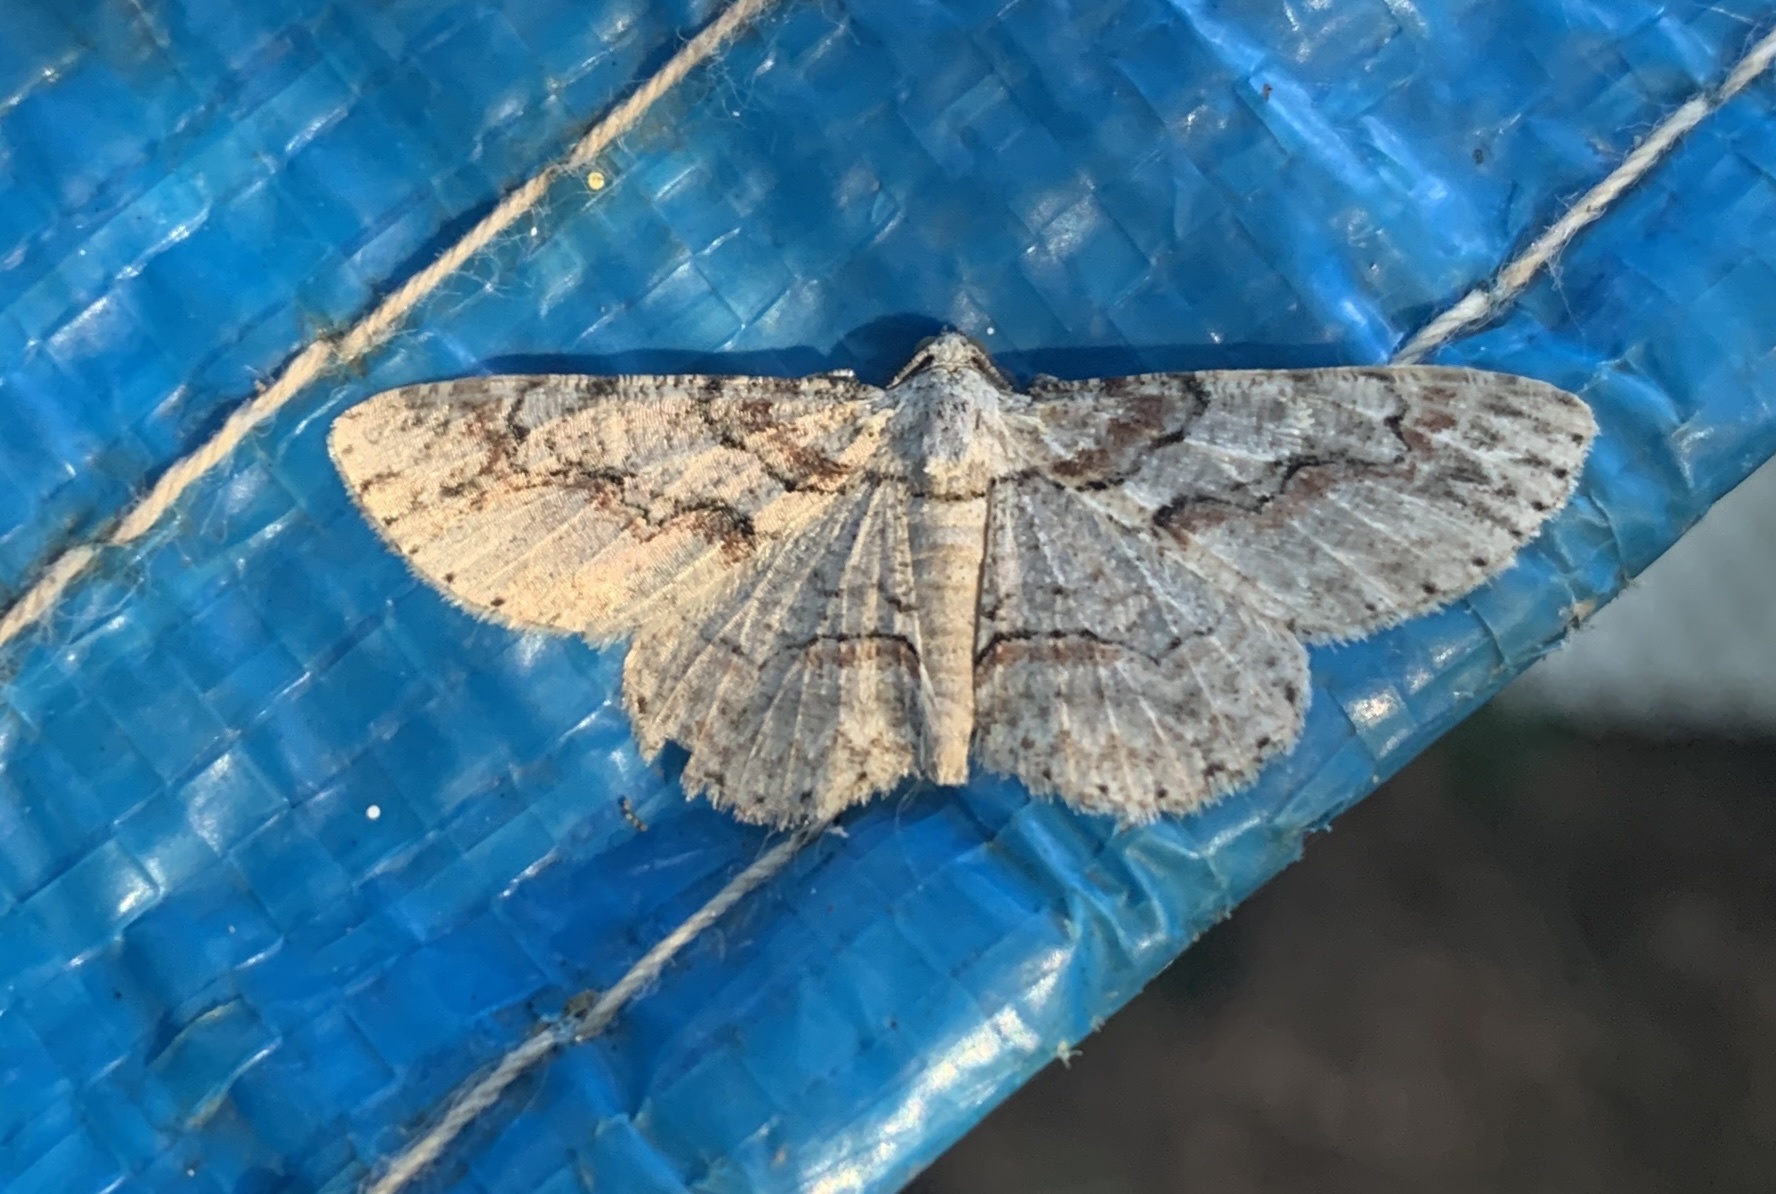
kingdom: Animalia
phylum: Arthropoda
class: Insecta
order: Lepidoptera
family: Geometridae
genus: Iridopsis
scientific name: Iridopsis defectaria
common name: Brown-shaded gray
